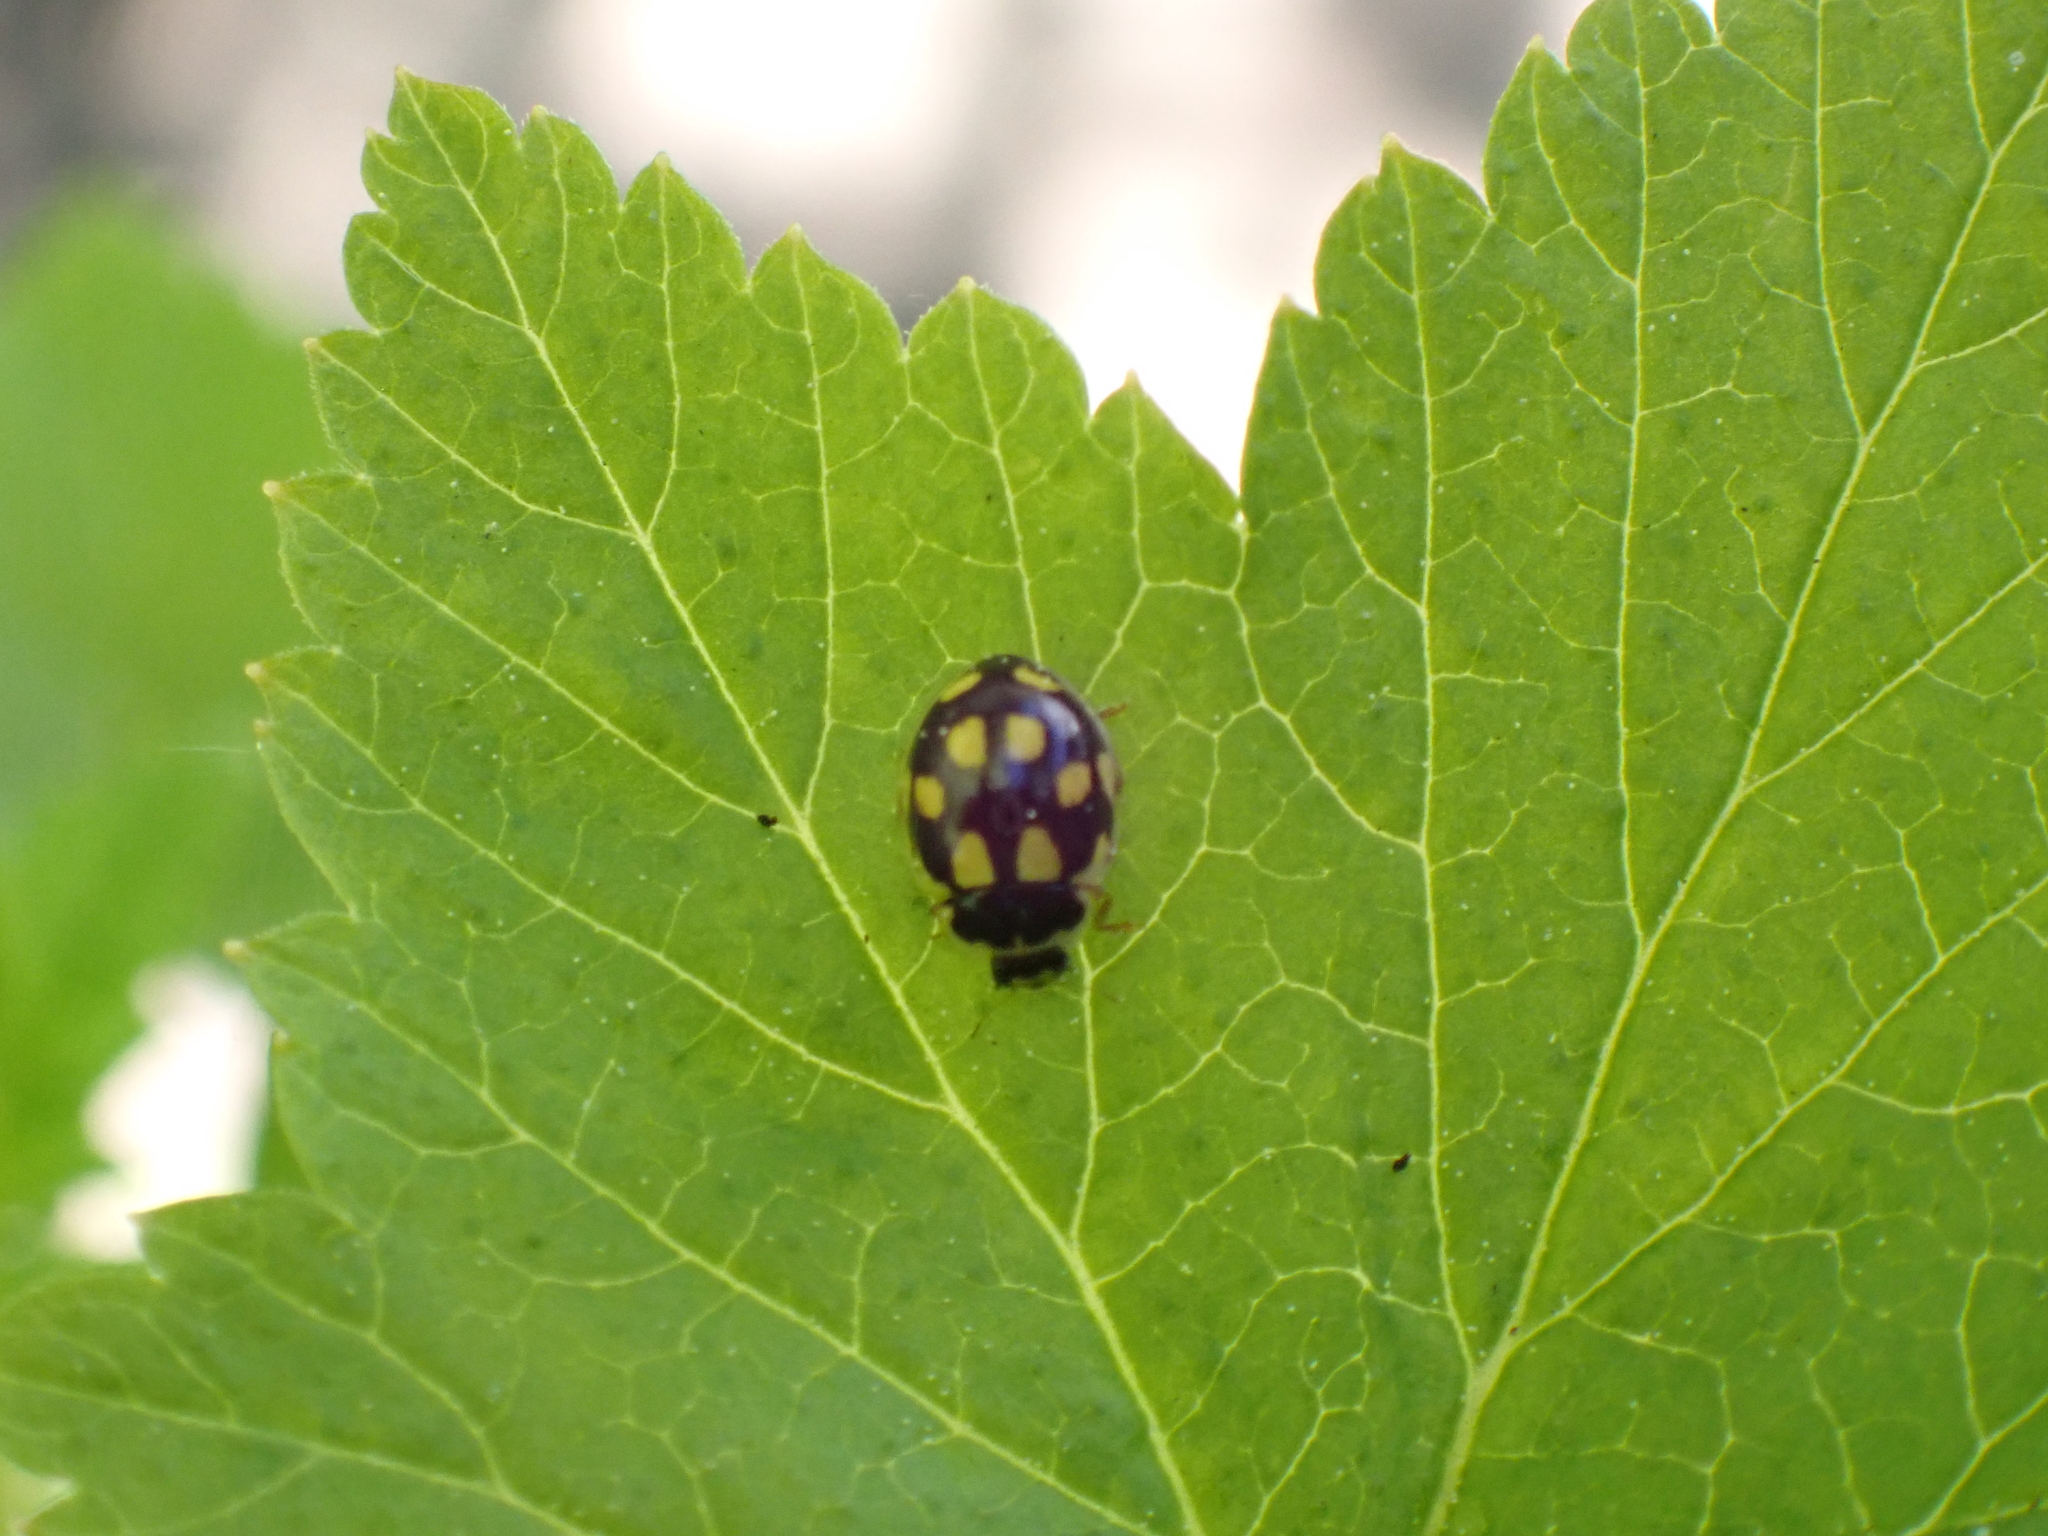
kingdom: Animalia
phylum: Arthropoda
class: Insecta
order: Coleoptera
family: Coccinellidae
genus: Propylaea
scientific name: Propylaea quatuordecimpunctata
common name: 14-spotted ladybird beetle
